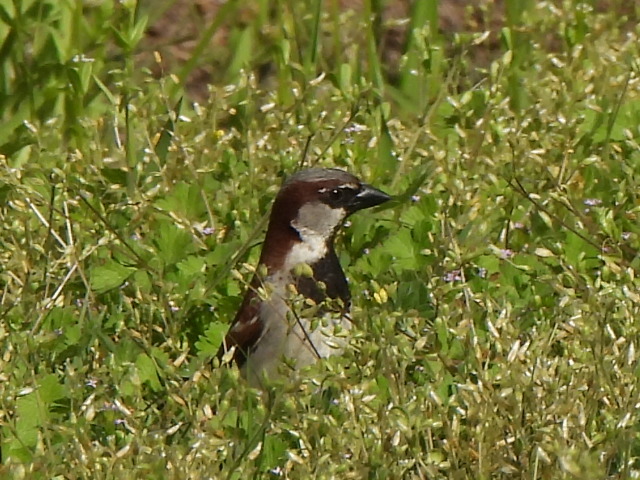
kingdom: Animalia
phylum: Chordata
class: Aves
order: Passeriformes
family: Passeridae
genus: Passer
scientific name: Passer domesticus
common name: House sparrow
